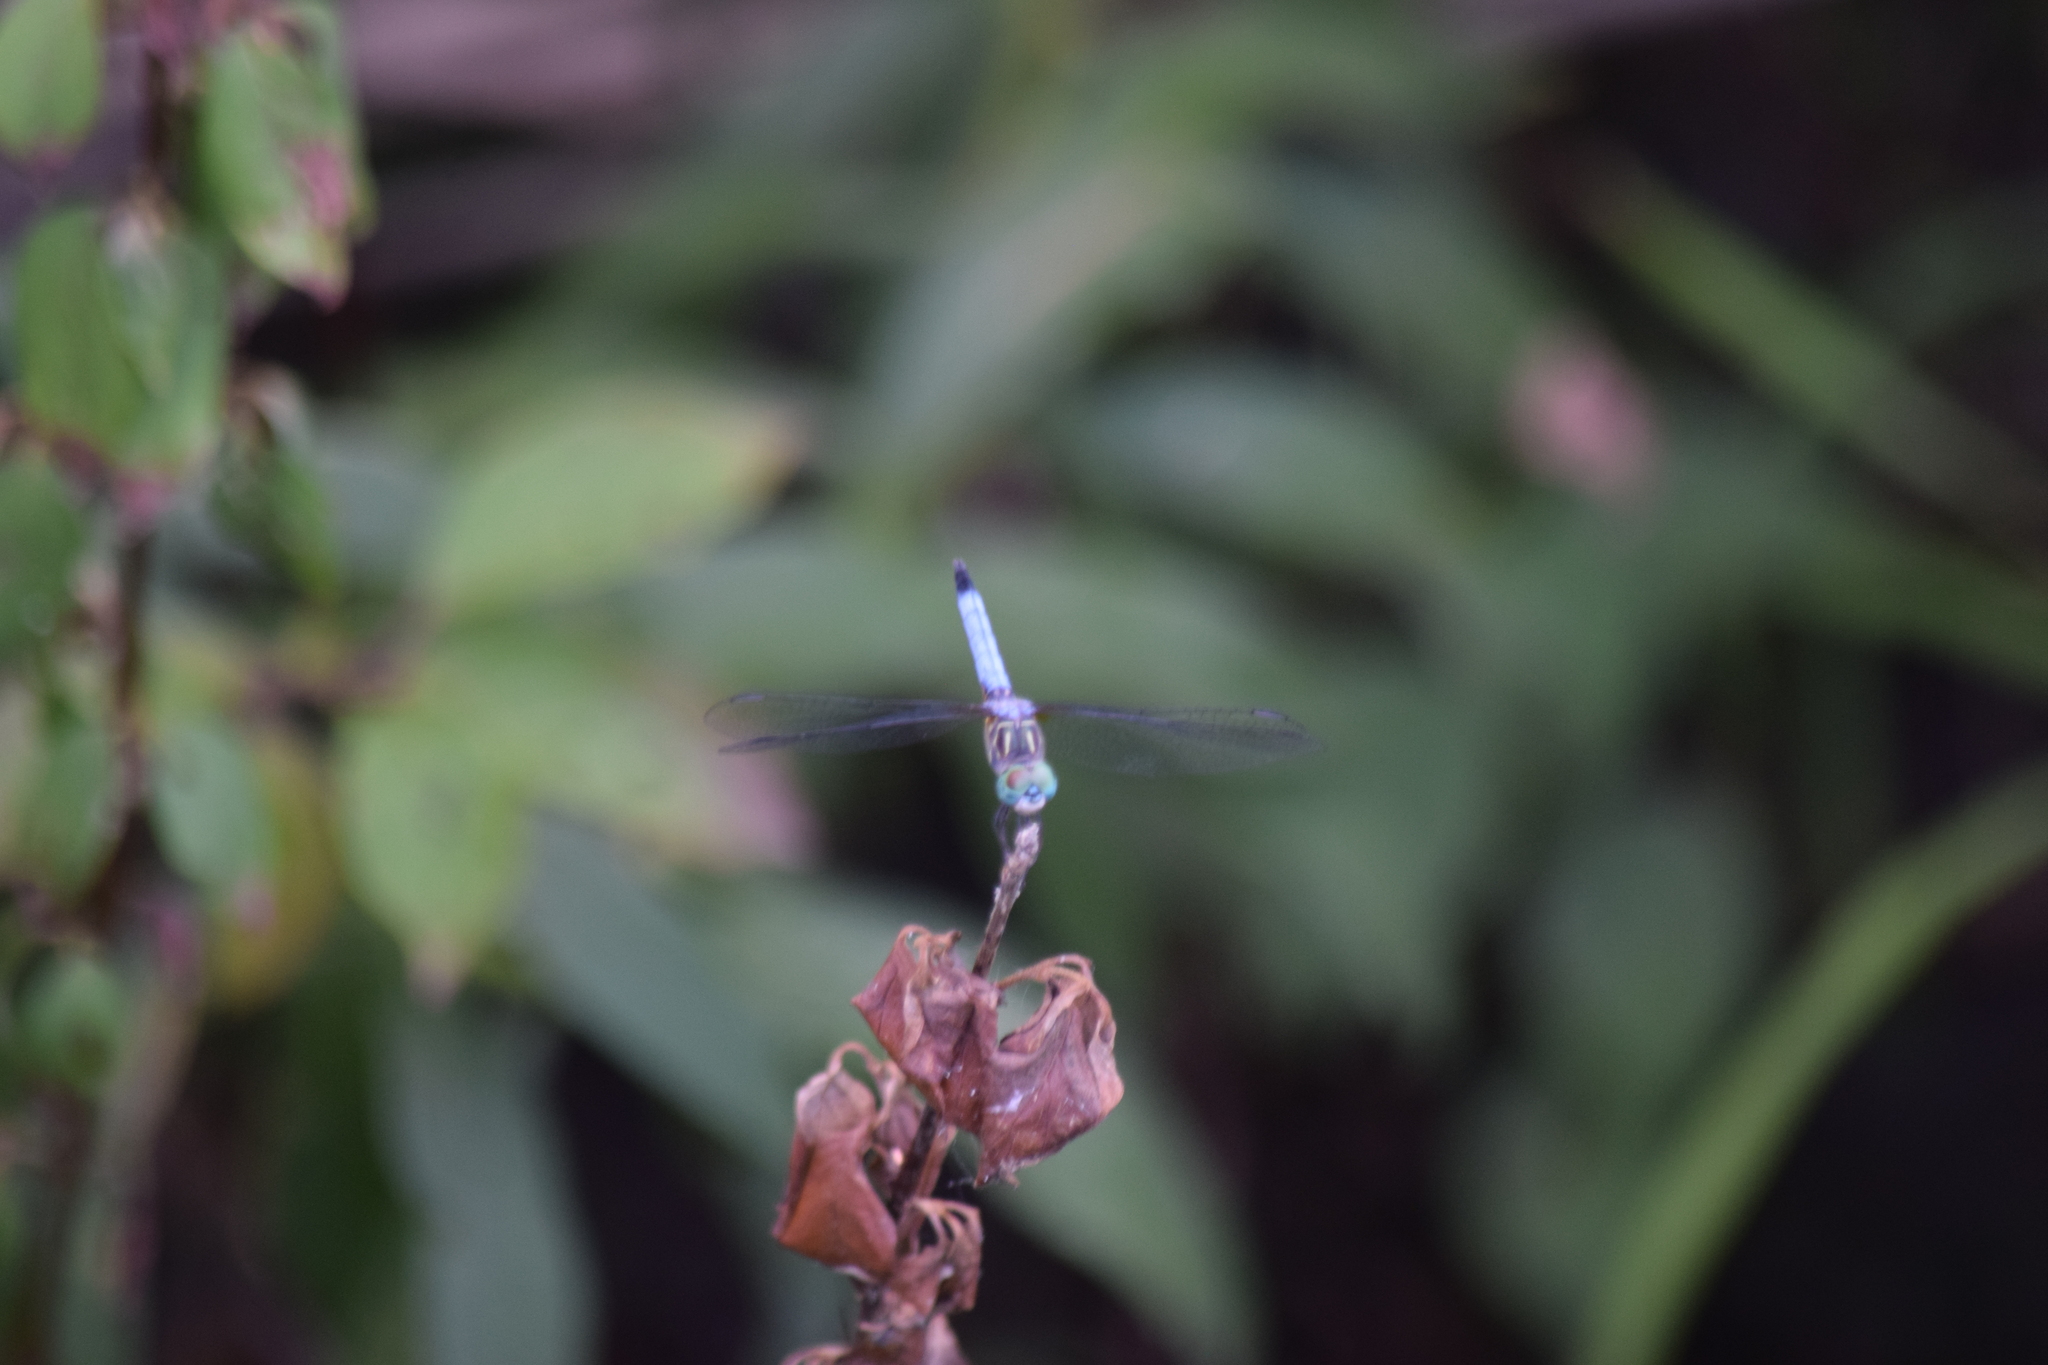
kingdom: Animalia
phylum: Arthropoda
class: Insecta
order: Odonata
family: Libellulidae
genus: Pachydiplax
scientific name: Pachydiplax longipennis
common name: Blue dasher
